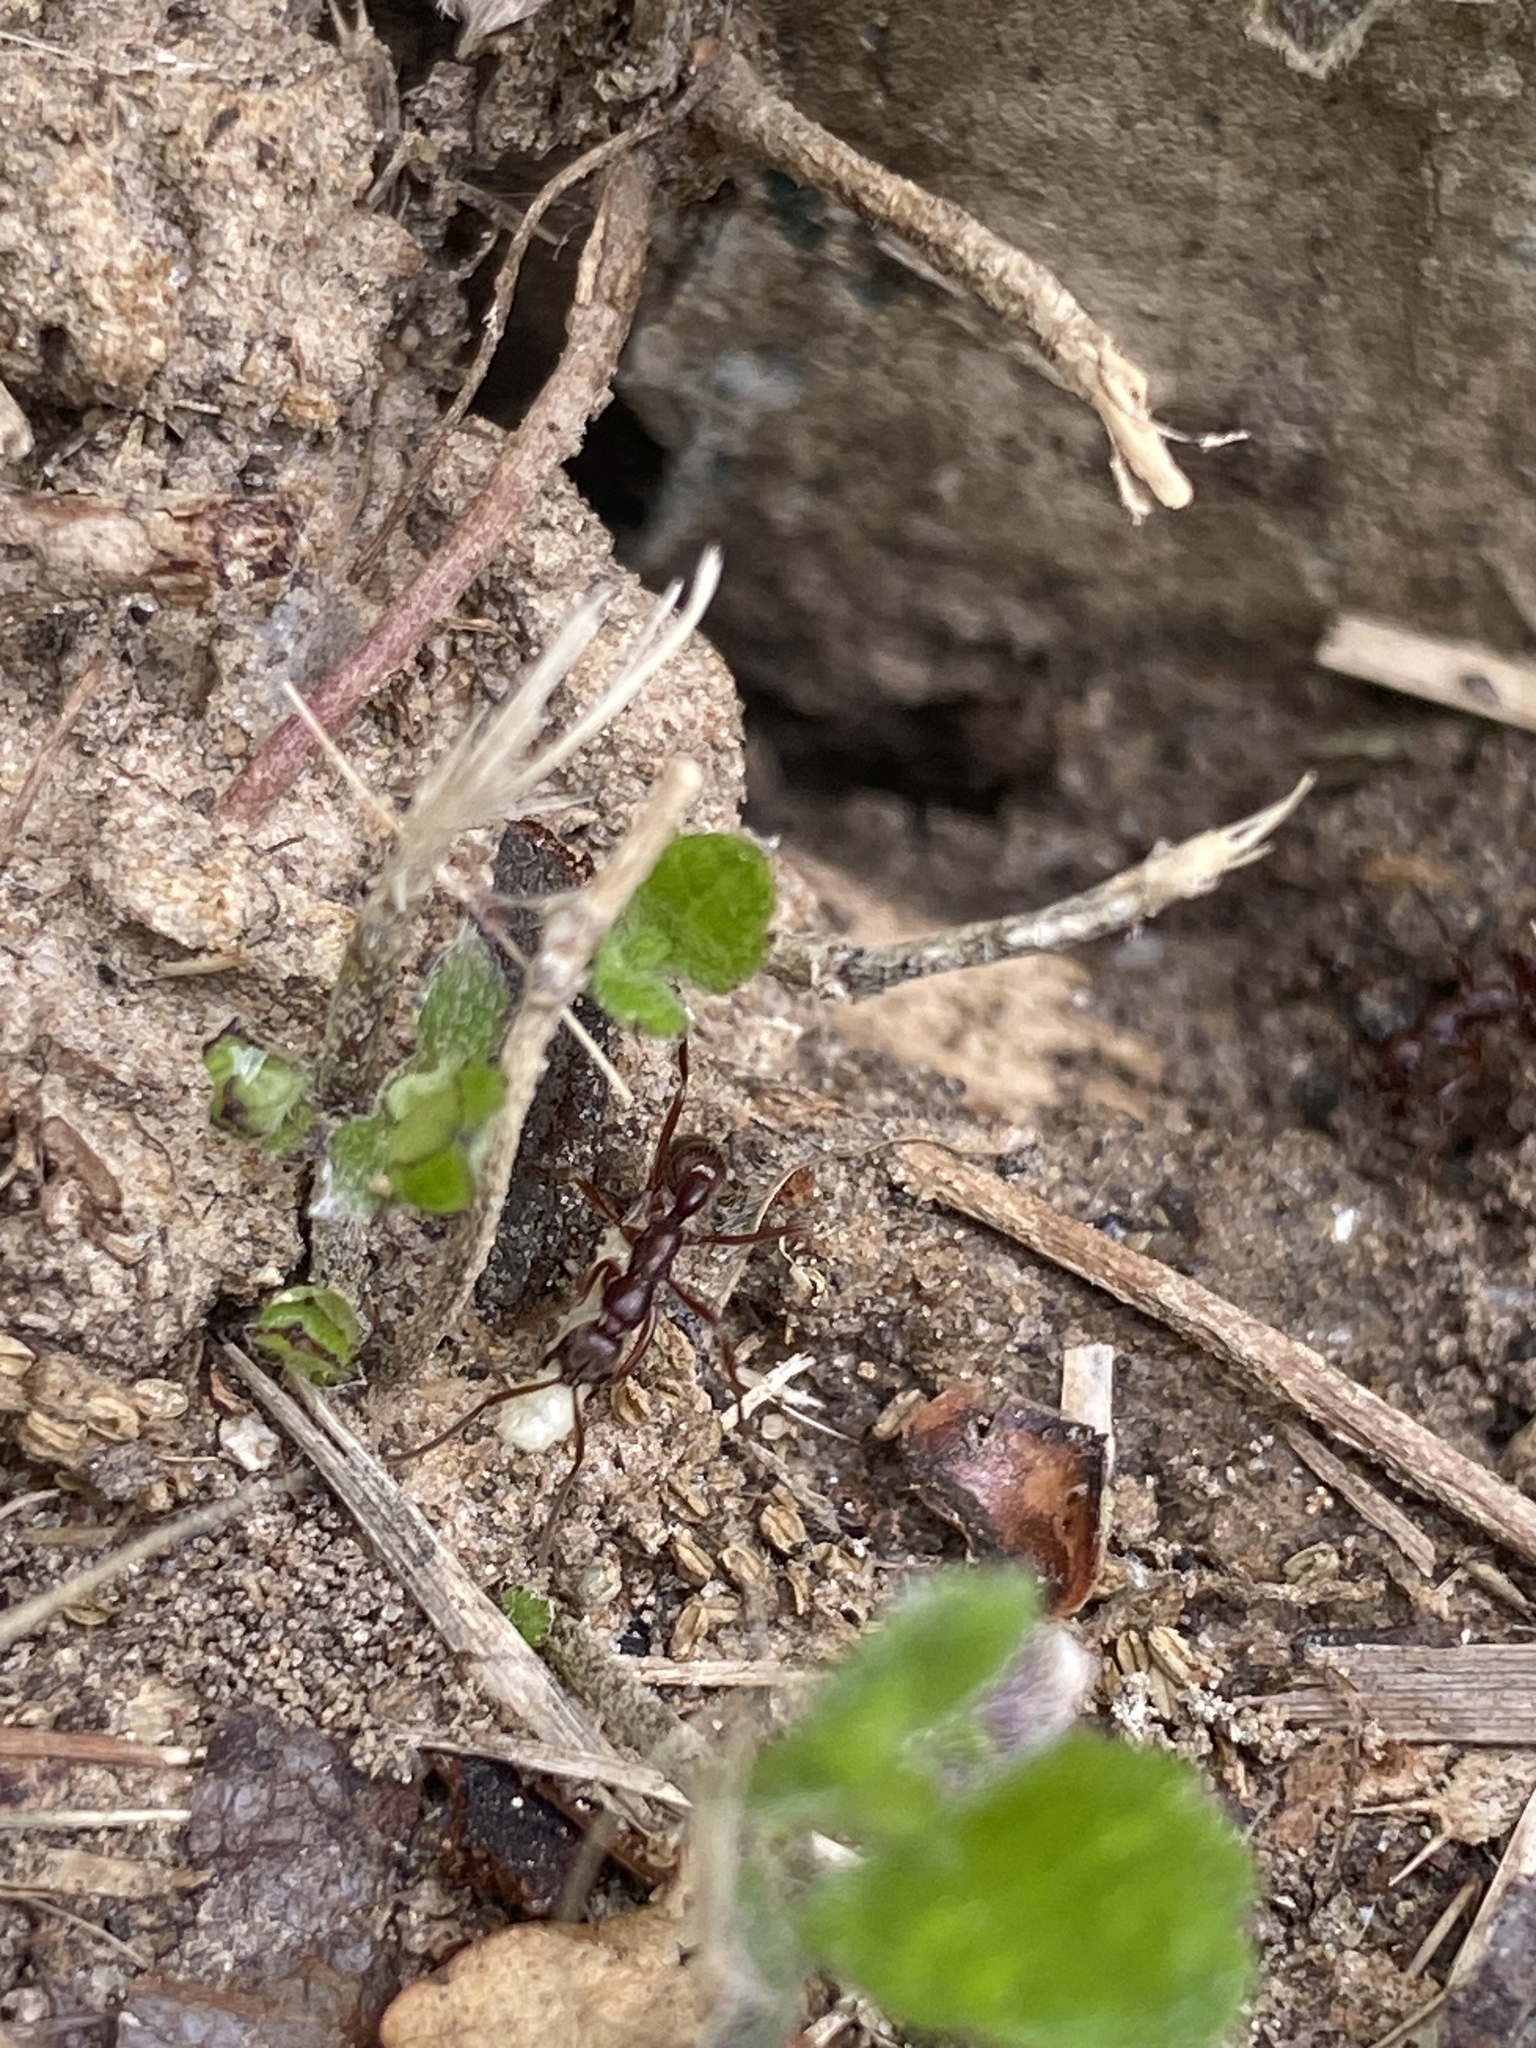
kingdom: Animalia
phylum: Arthropoda
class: Insecta
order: Hymenoptera
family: Formicidae
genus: Leptogenys
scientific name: Leptogenys elongata
